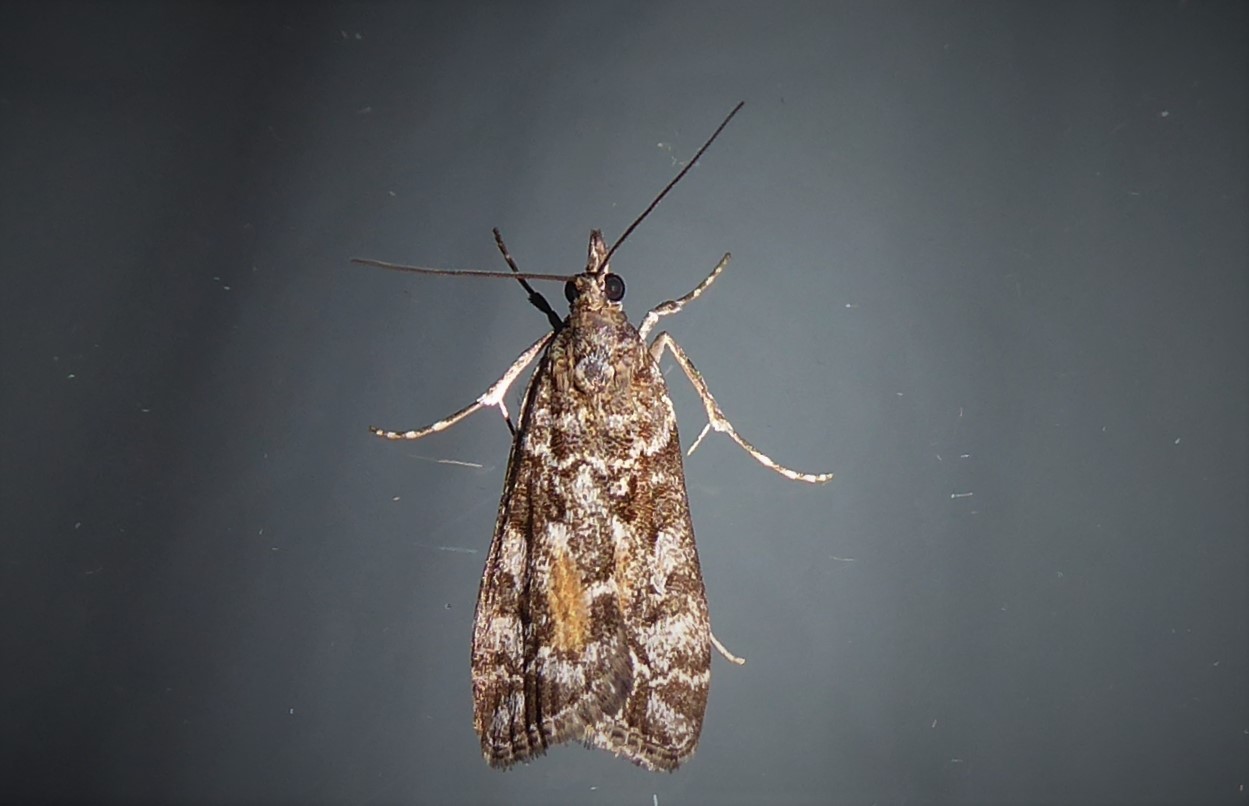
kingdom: Animalia
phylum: Arthropoda
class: Insecta
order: Lepidoptera
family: Crambidae
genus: Eudonia
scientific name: Eudonia submarginalis
